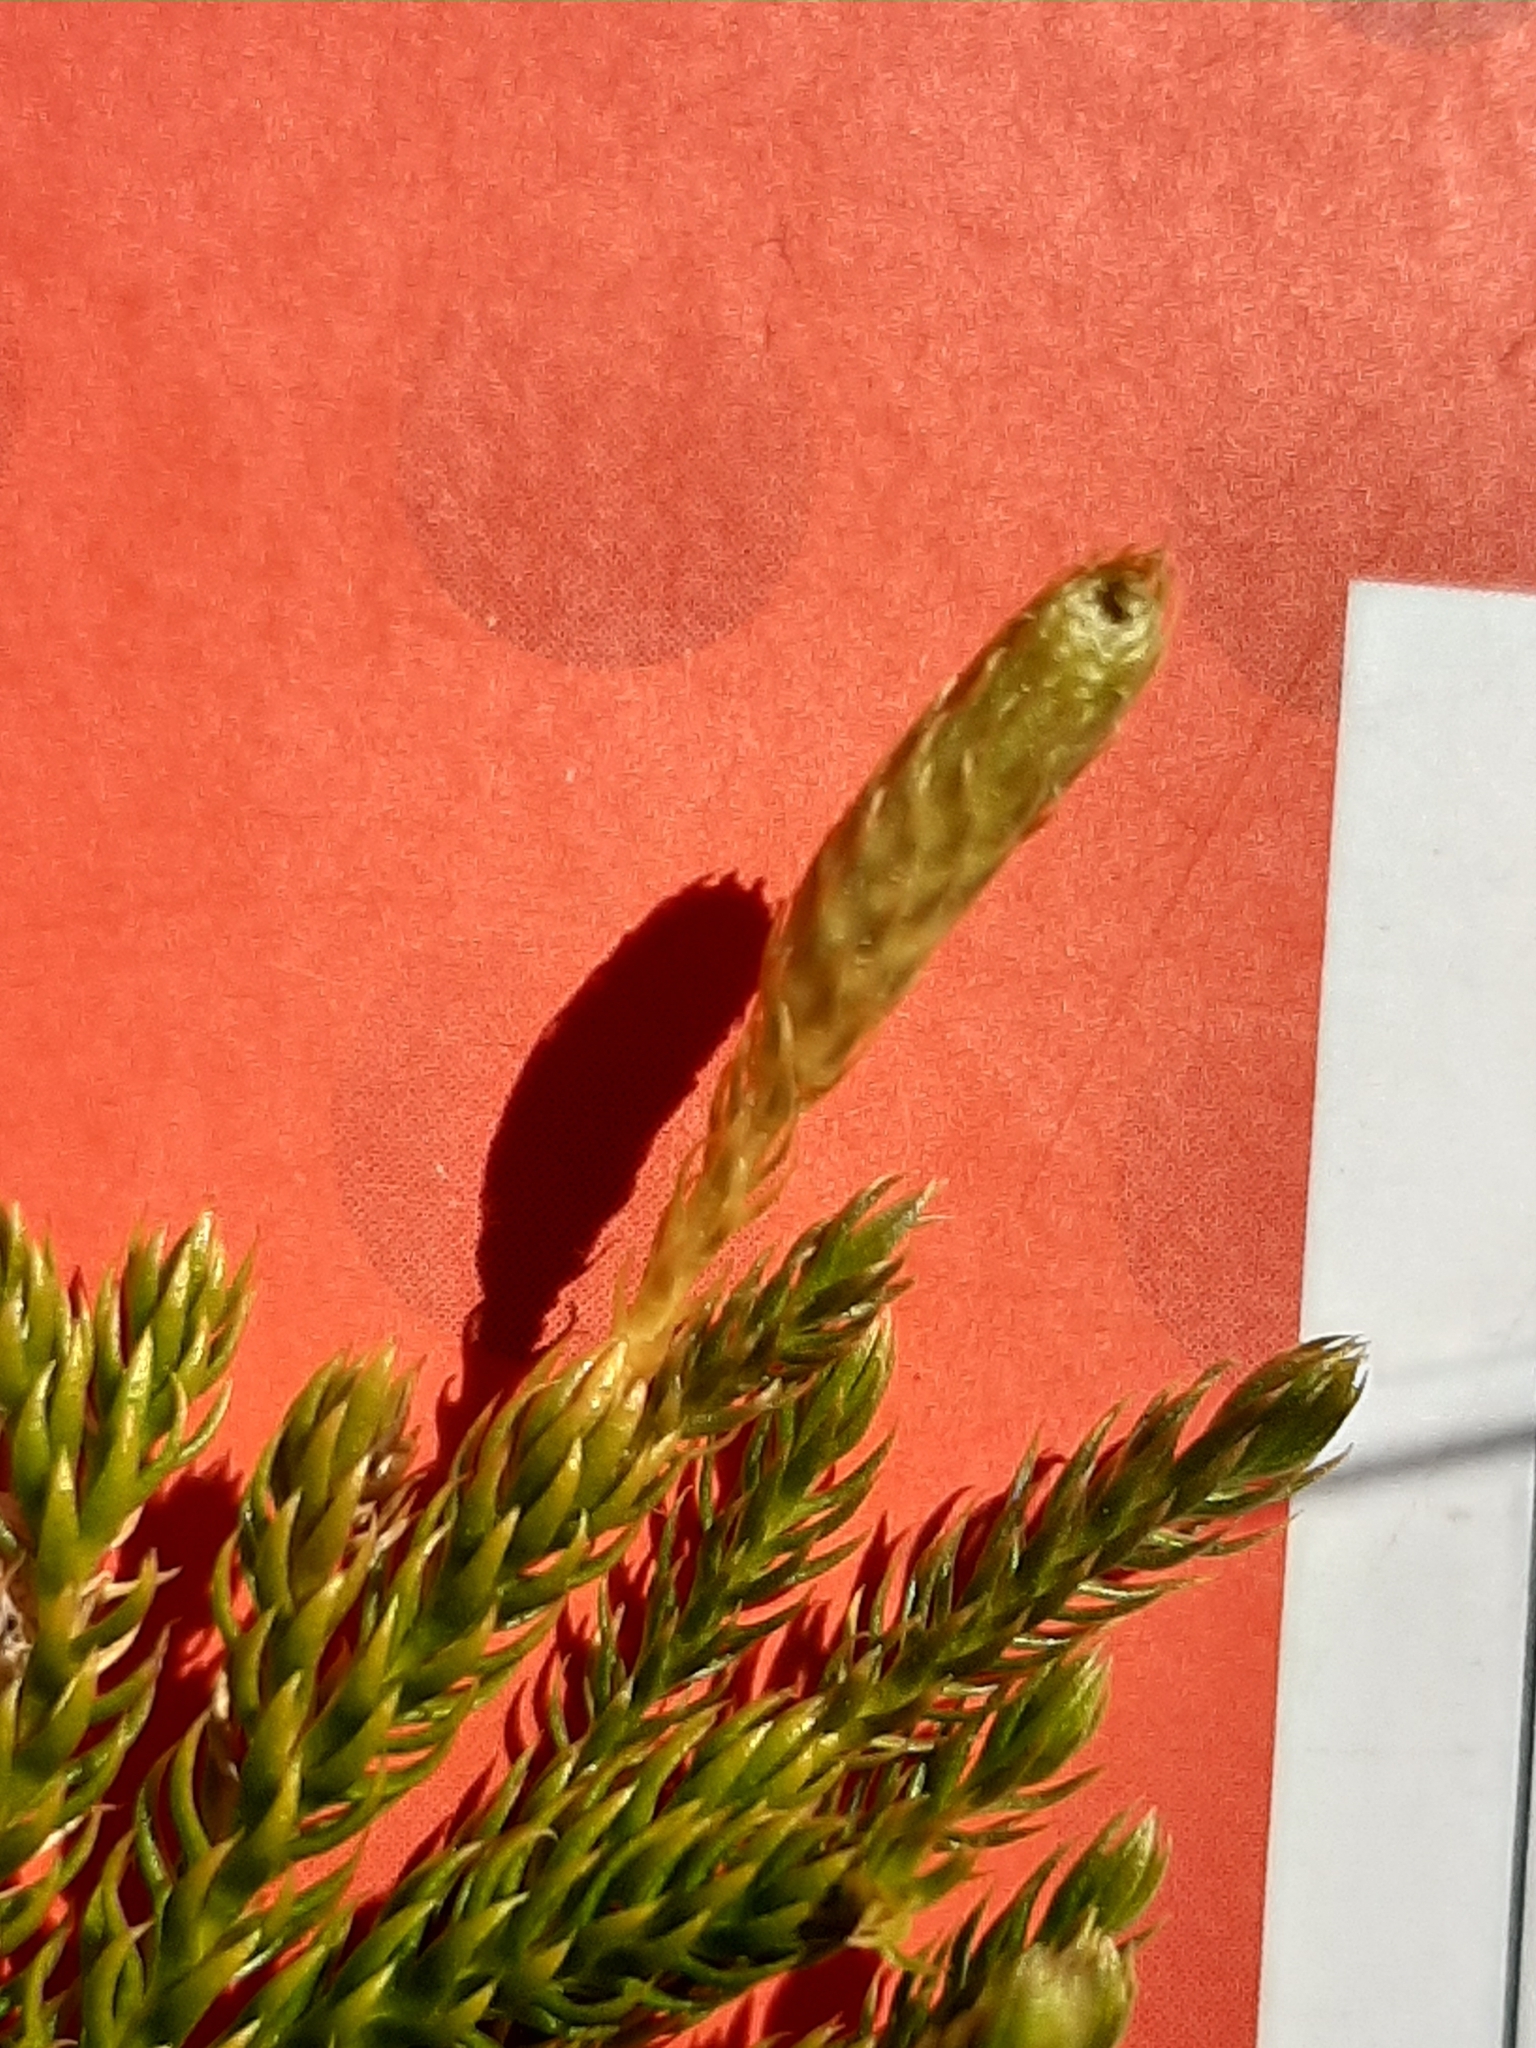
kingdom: Plantae
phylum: Tracheophyta
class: Lycopodiopsida
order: Lycopodiales
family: Lycopodiaceae
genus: Austrolycopodium
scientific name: Austrolycopodium fastigiatum
